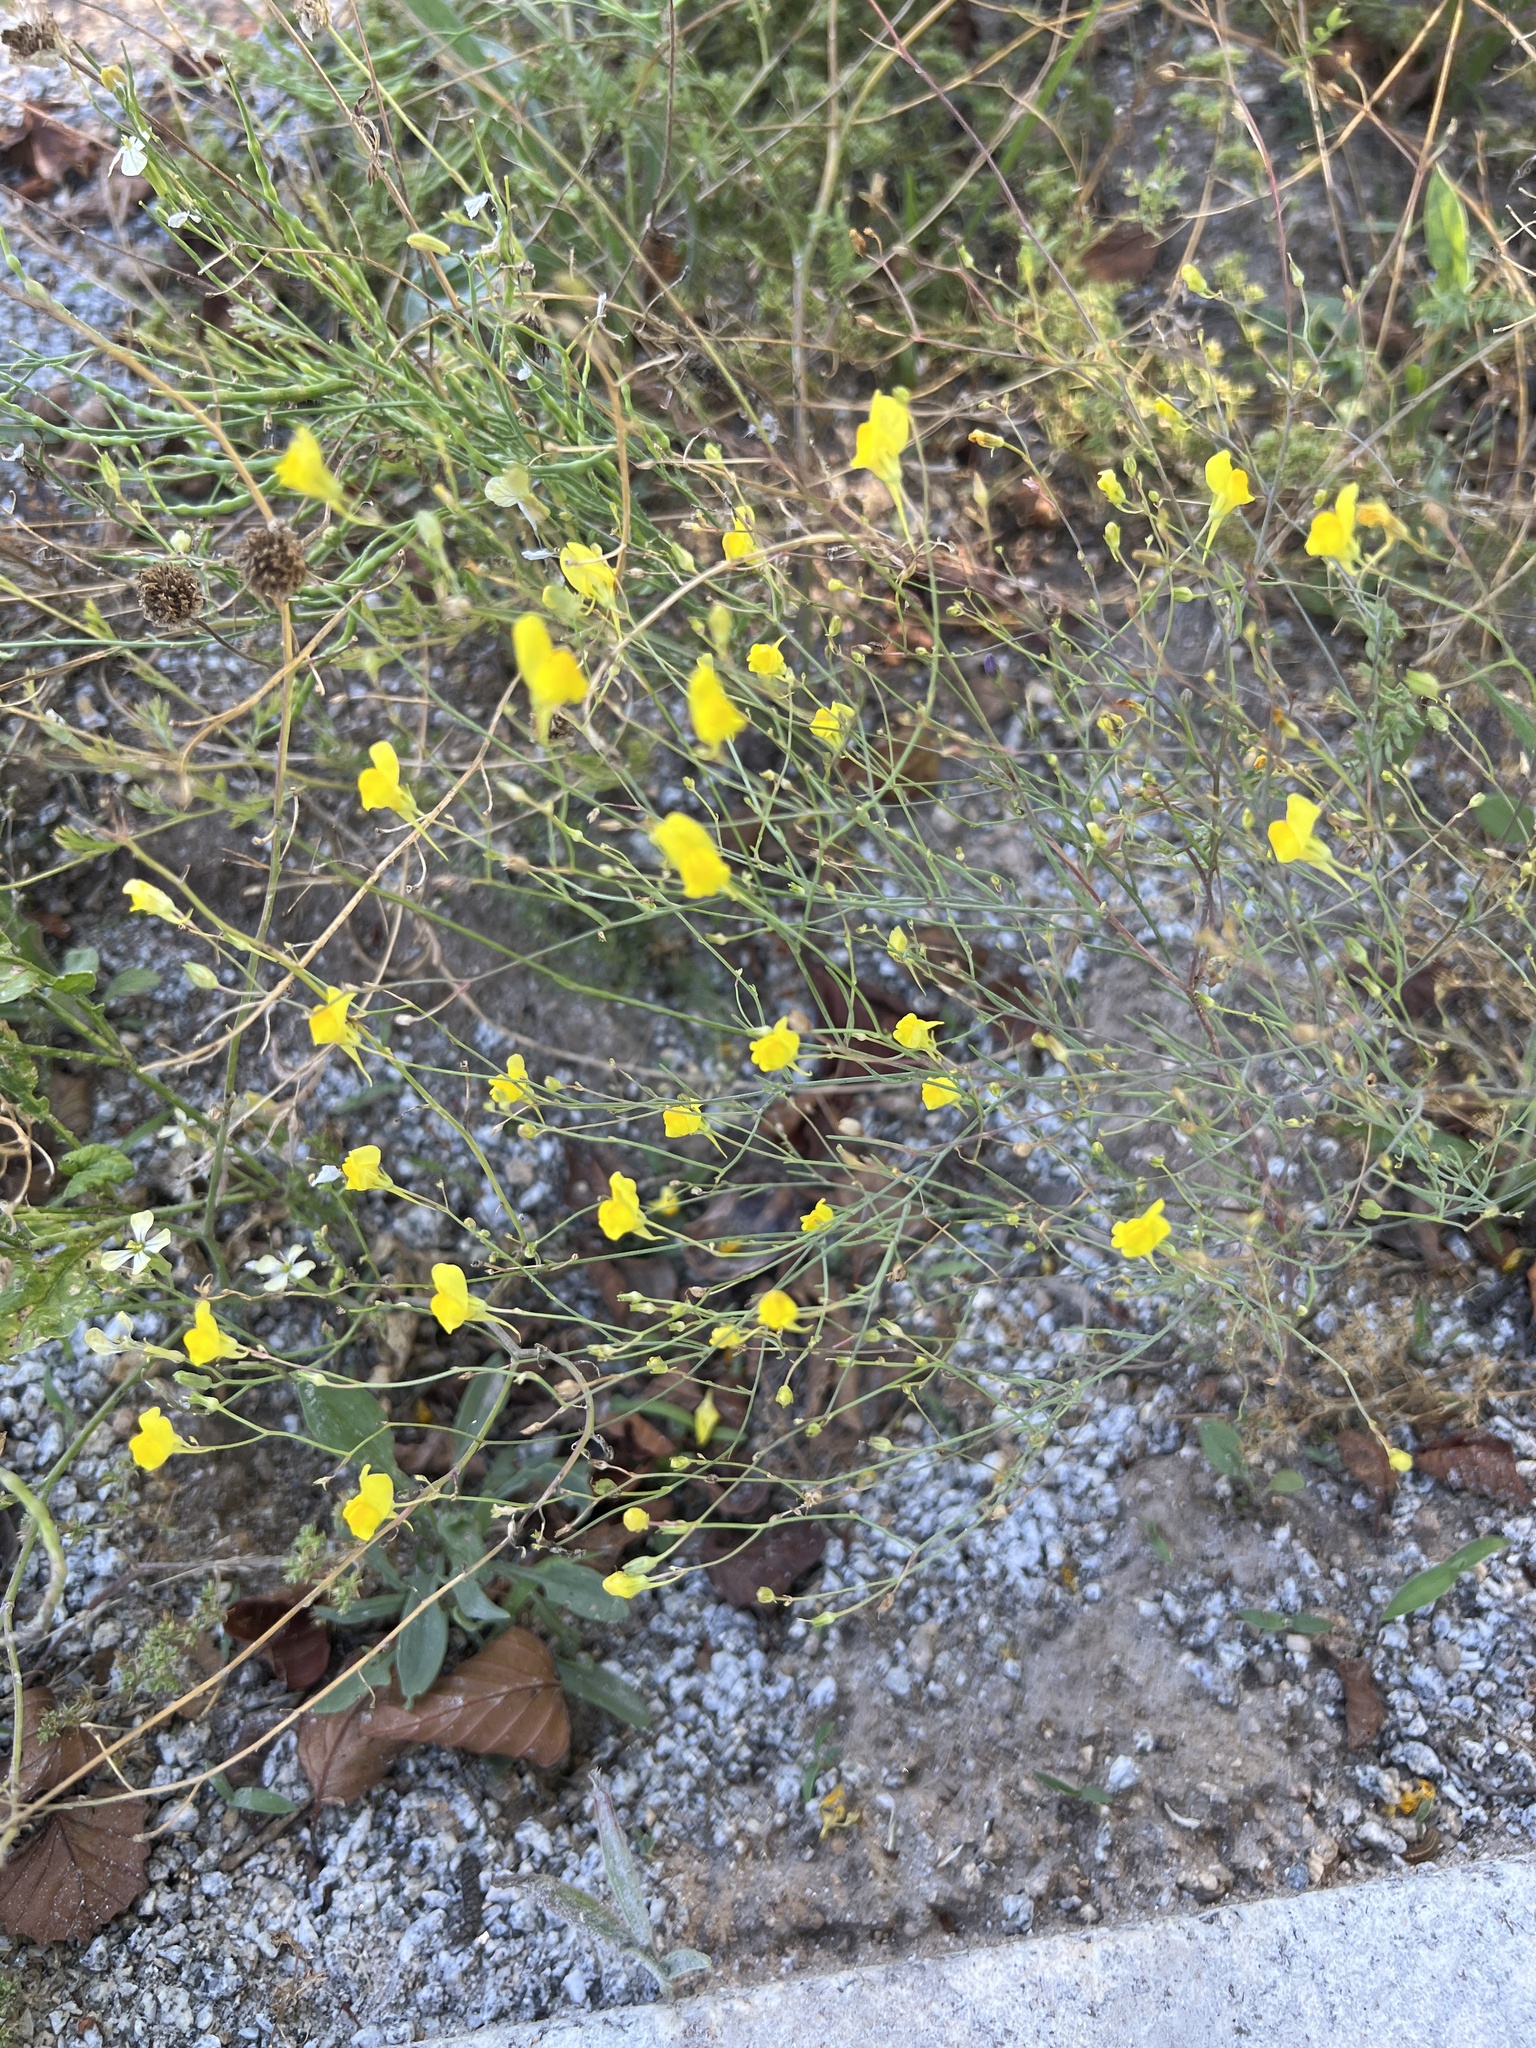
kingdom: Plantae
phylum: Tracheophyta
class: Magnoliopsida
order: Lamiales
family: Plantaginaceae
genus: Linaria
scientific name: Linaria spartea
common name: Ballast toadflax
